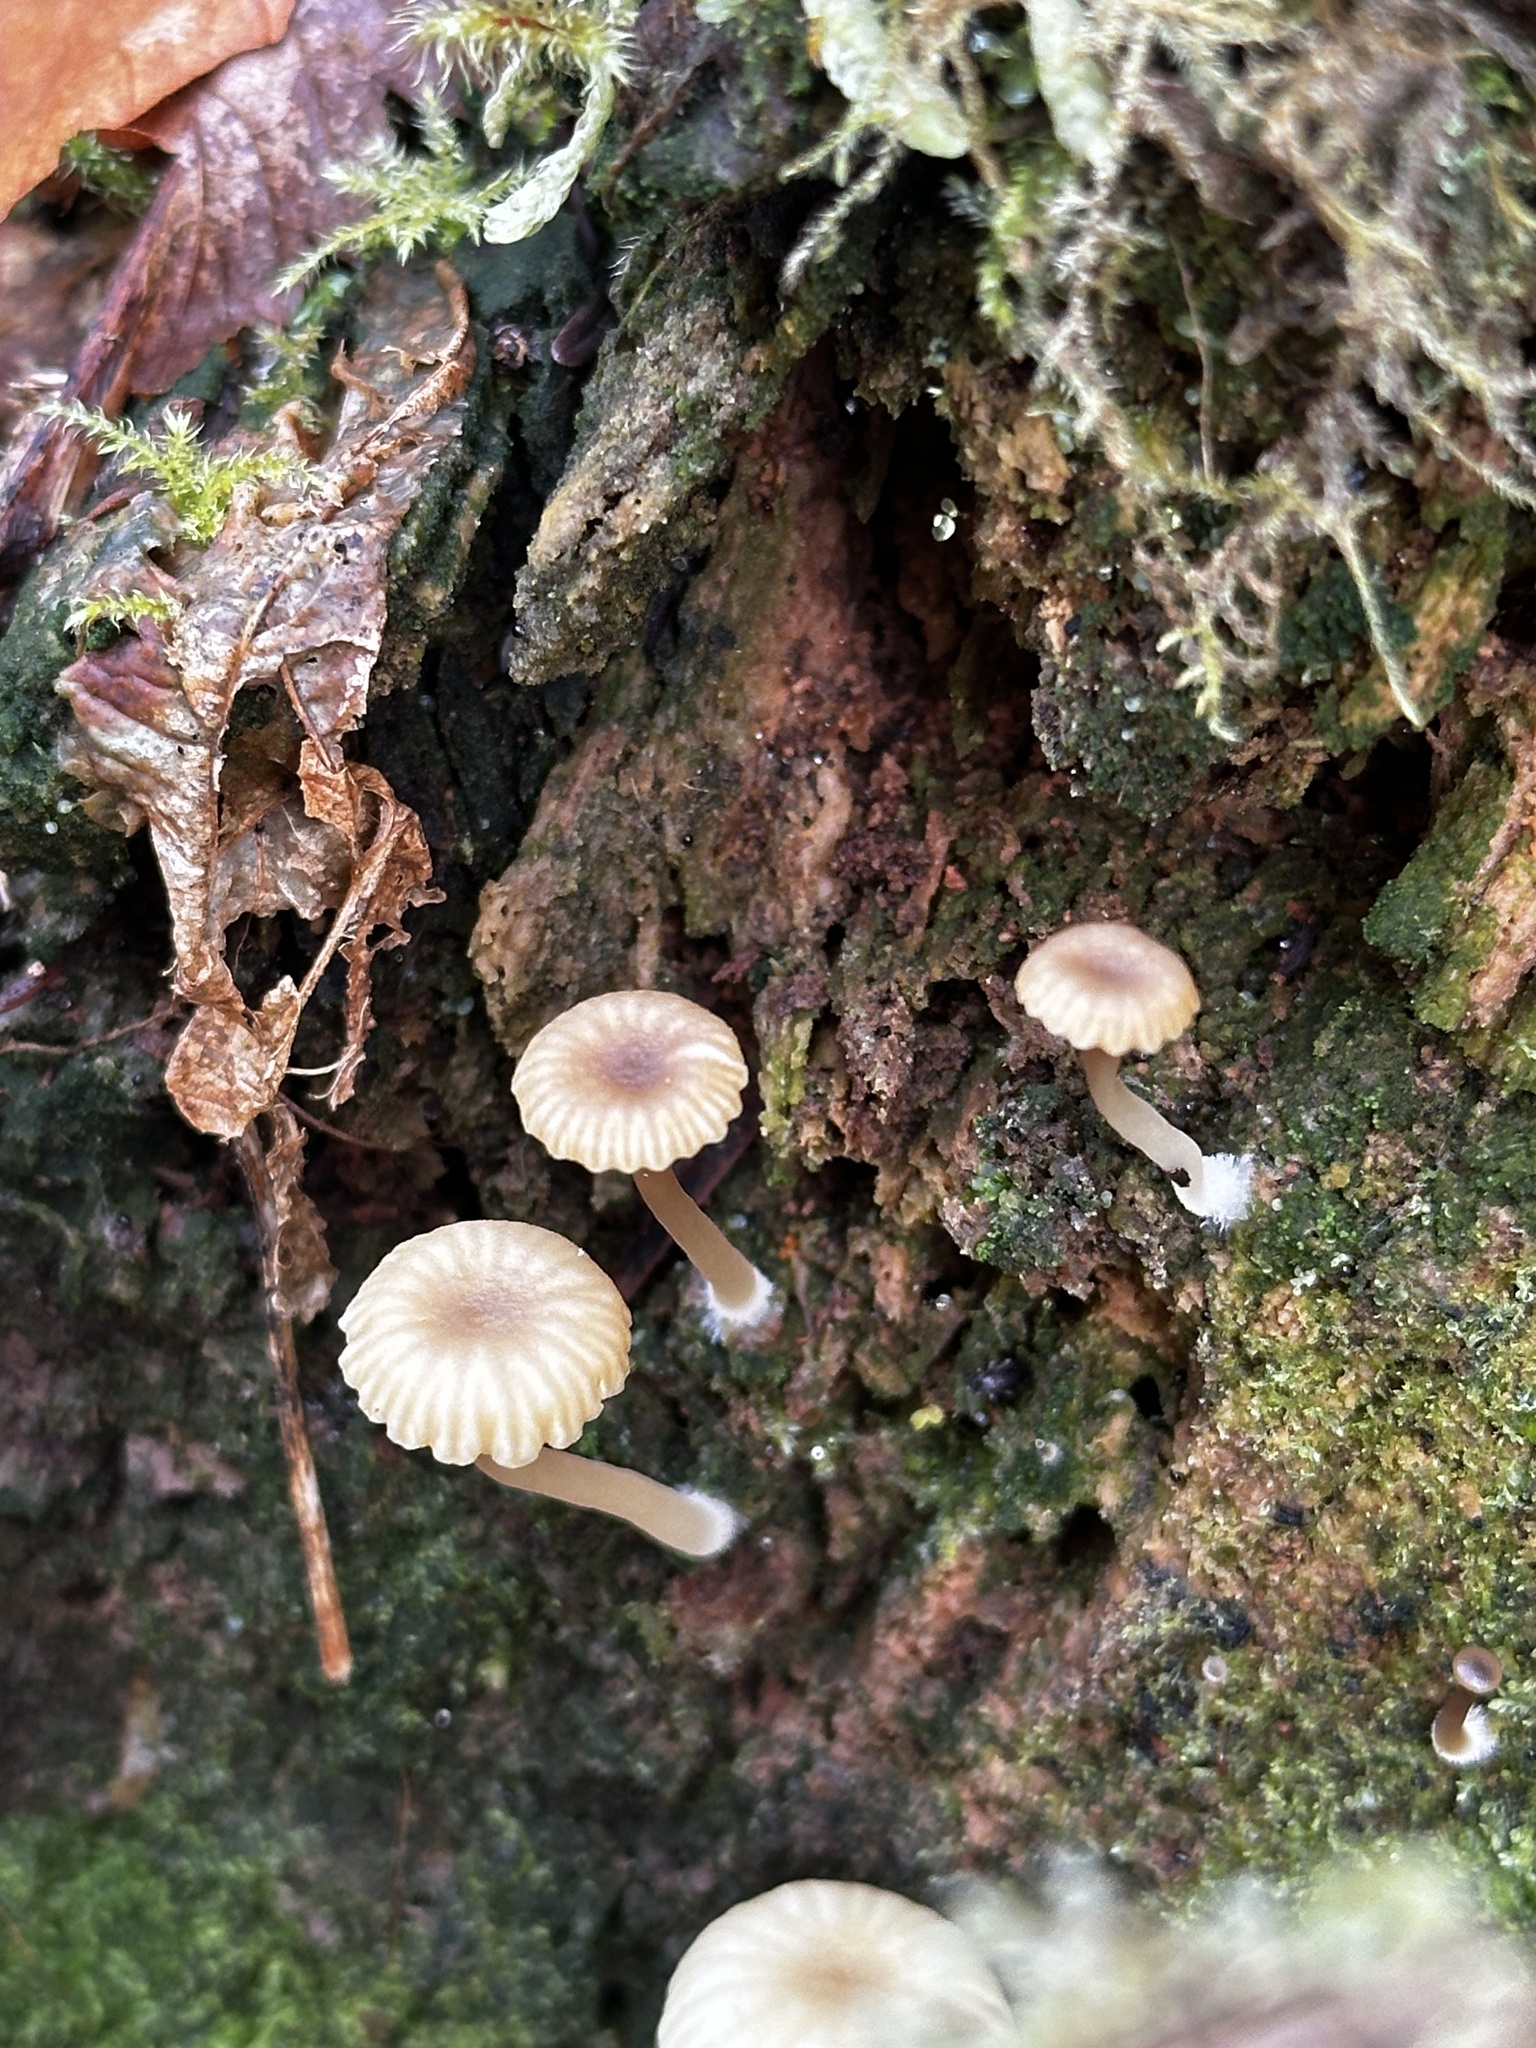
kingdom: Fungi
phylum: Basidiomycota
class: Agaricomycetes
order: Agaricales
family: Hygrophoraceae
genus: Lichenomphalia
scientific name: Lichenomphalia
